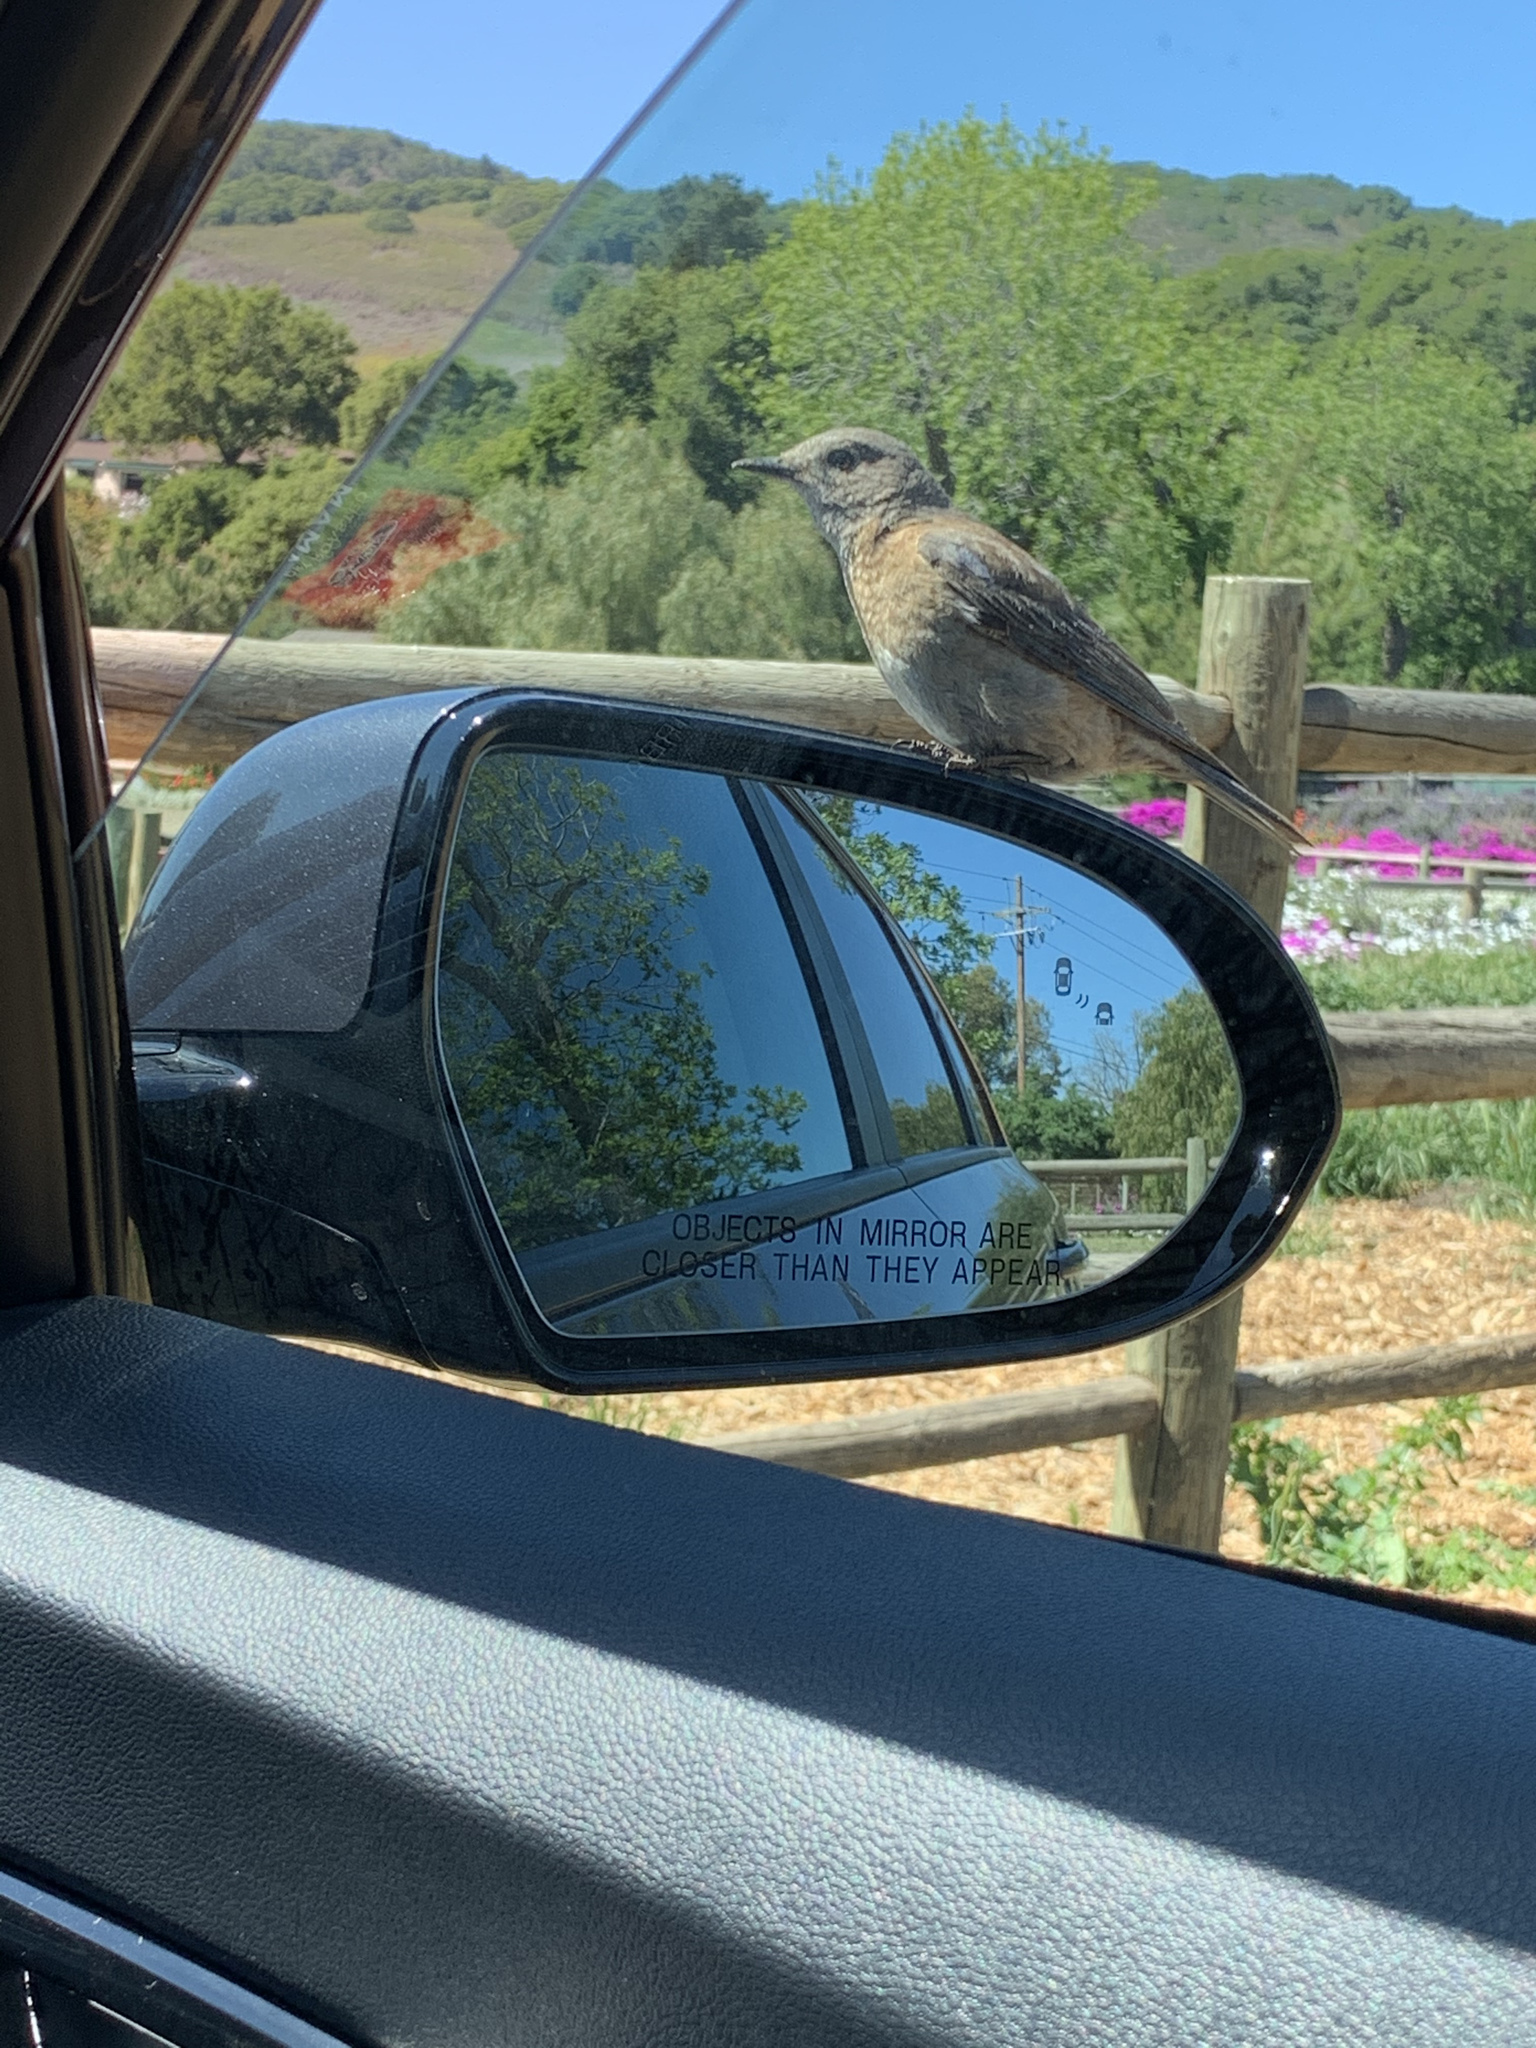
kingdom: Animalia
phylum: Chordata
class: Aves
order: Passeriformes
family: Turdidae
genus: Sialia
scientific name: Sialia mexicana
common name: Western bluebird
